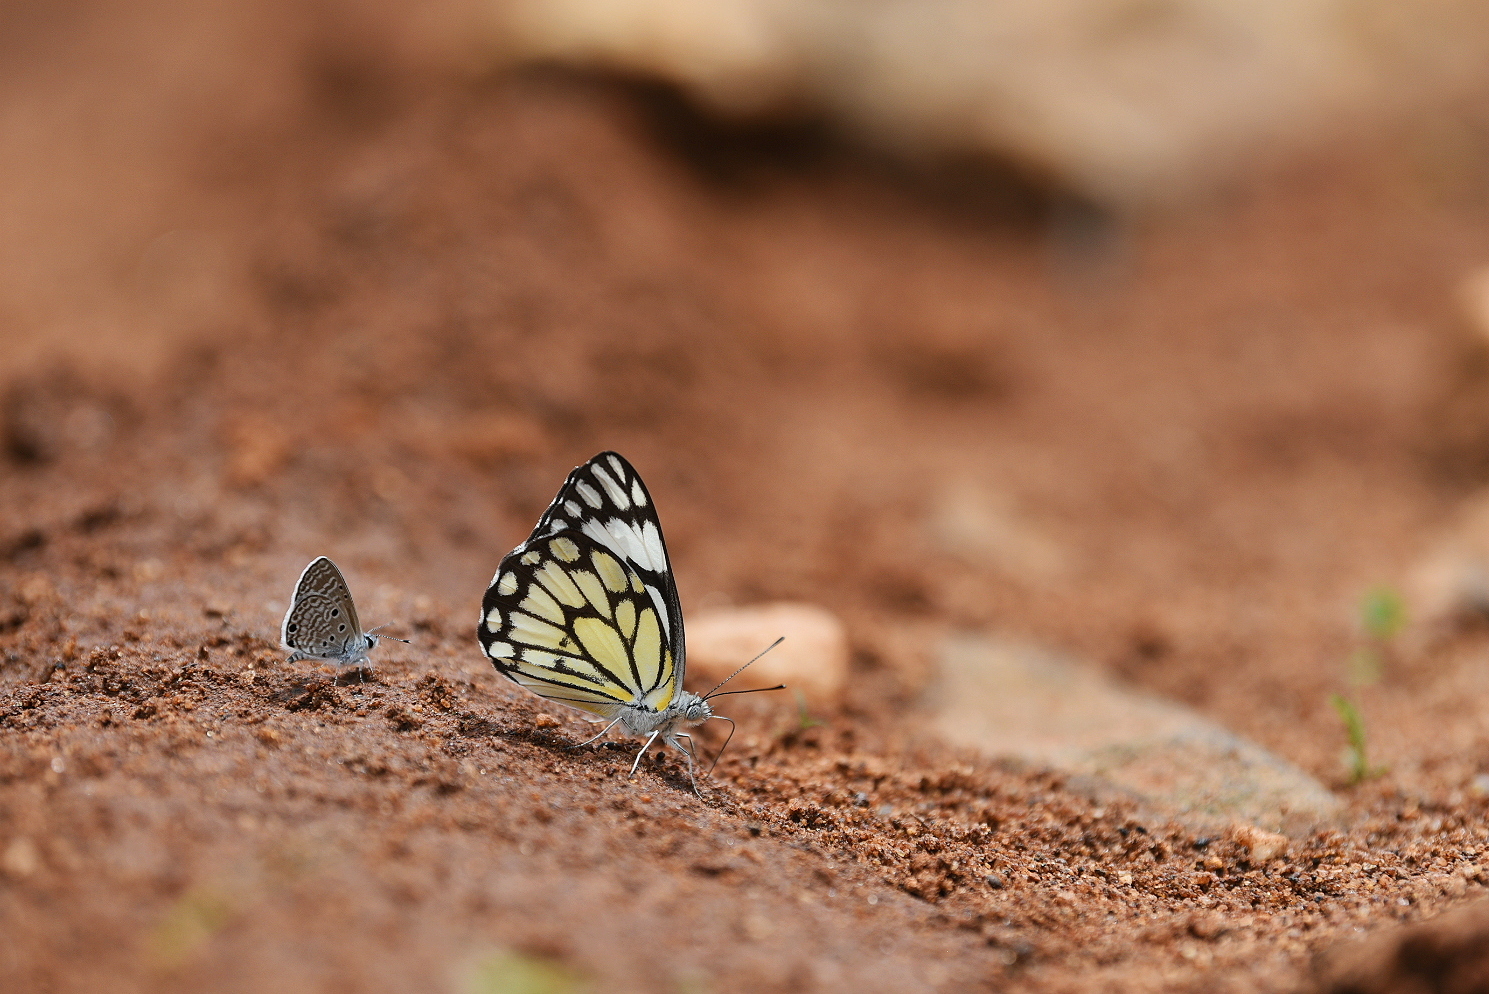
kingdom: Animalia
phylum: Arthropoda
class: Insecta
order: Lepidoptera
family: Pieridae
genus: Belenois
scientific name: Belenois aurota
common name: Brown-veined white
